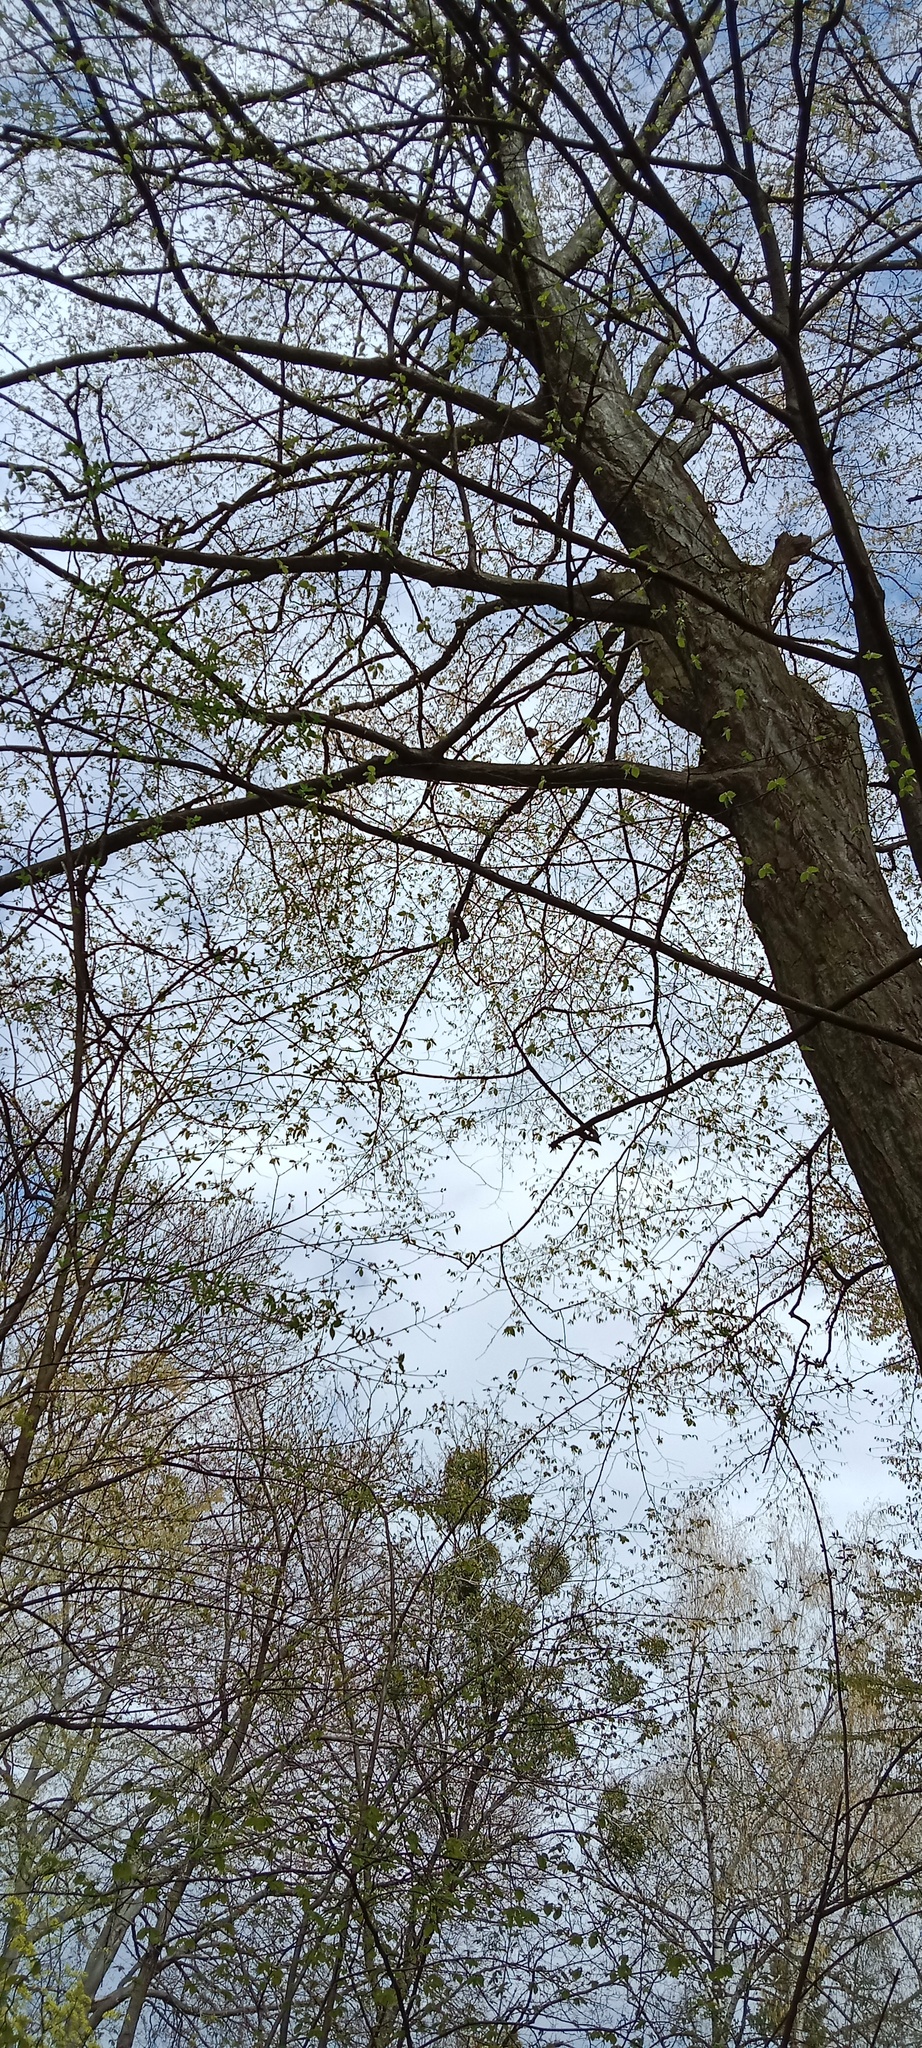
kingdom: Animalia
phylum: Chordata
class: Aves
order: Passeriformes
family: Fringillidae
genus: Coccothraustes
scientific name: Coccothraustes coccothraustes
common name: Hawfinch
